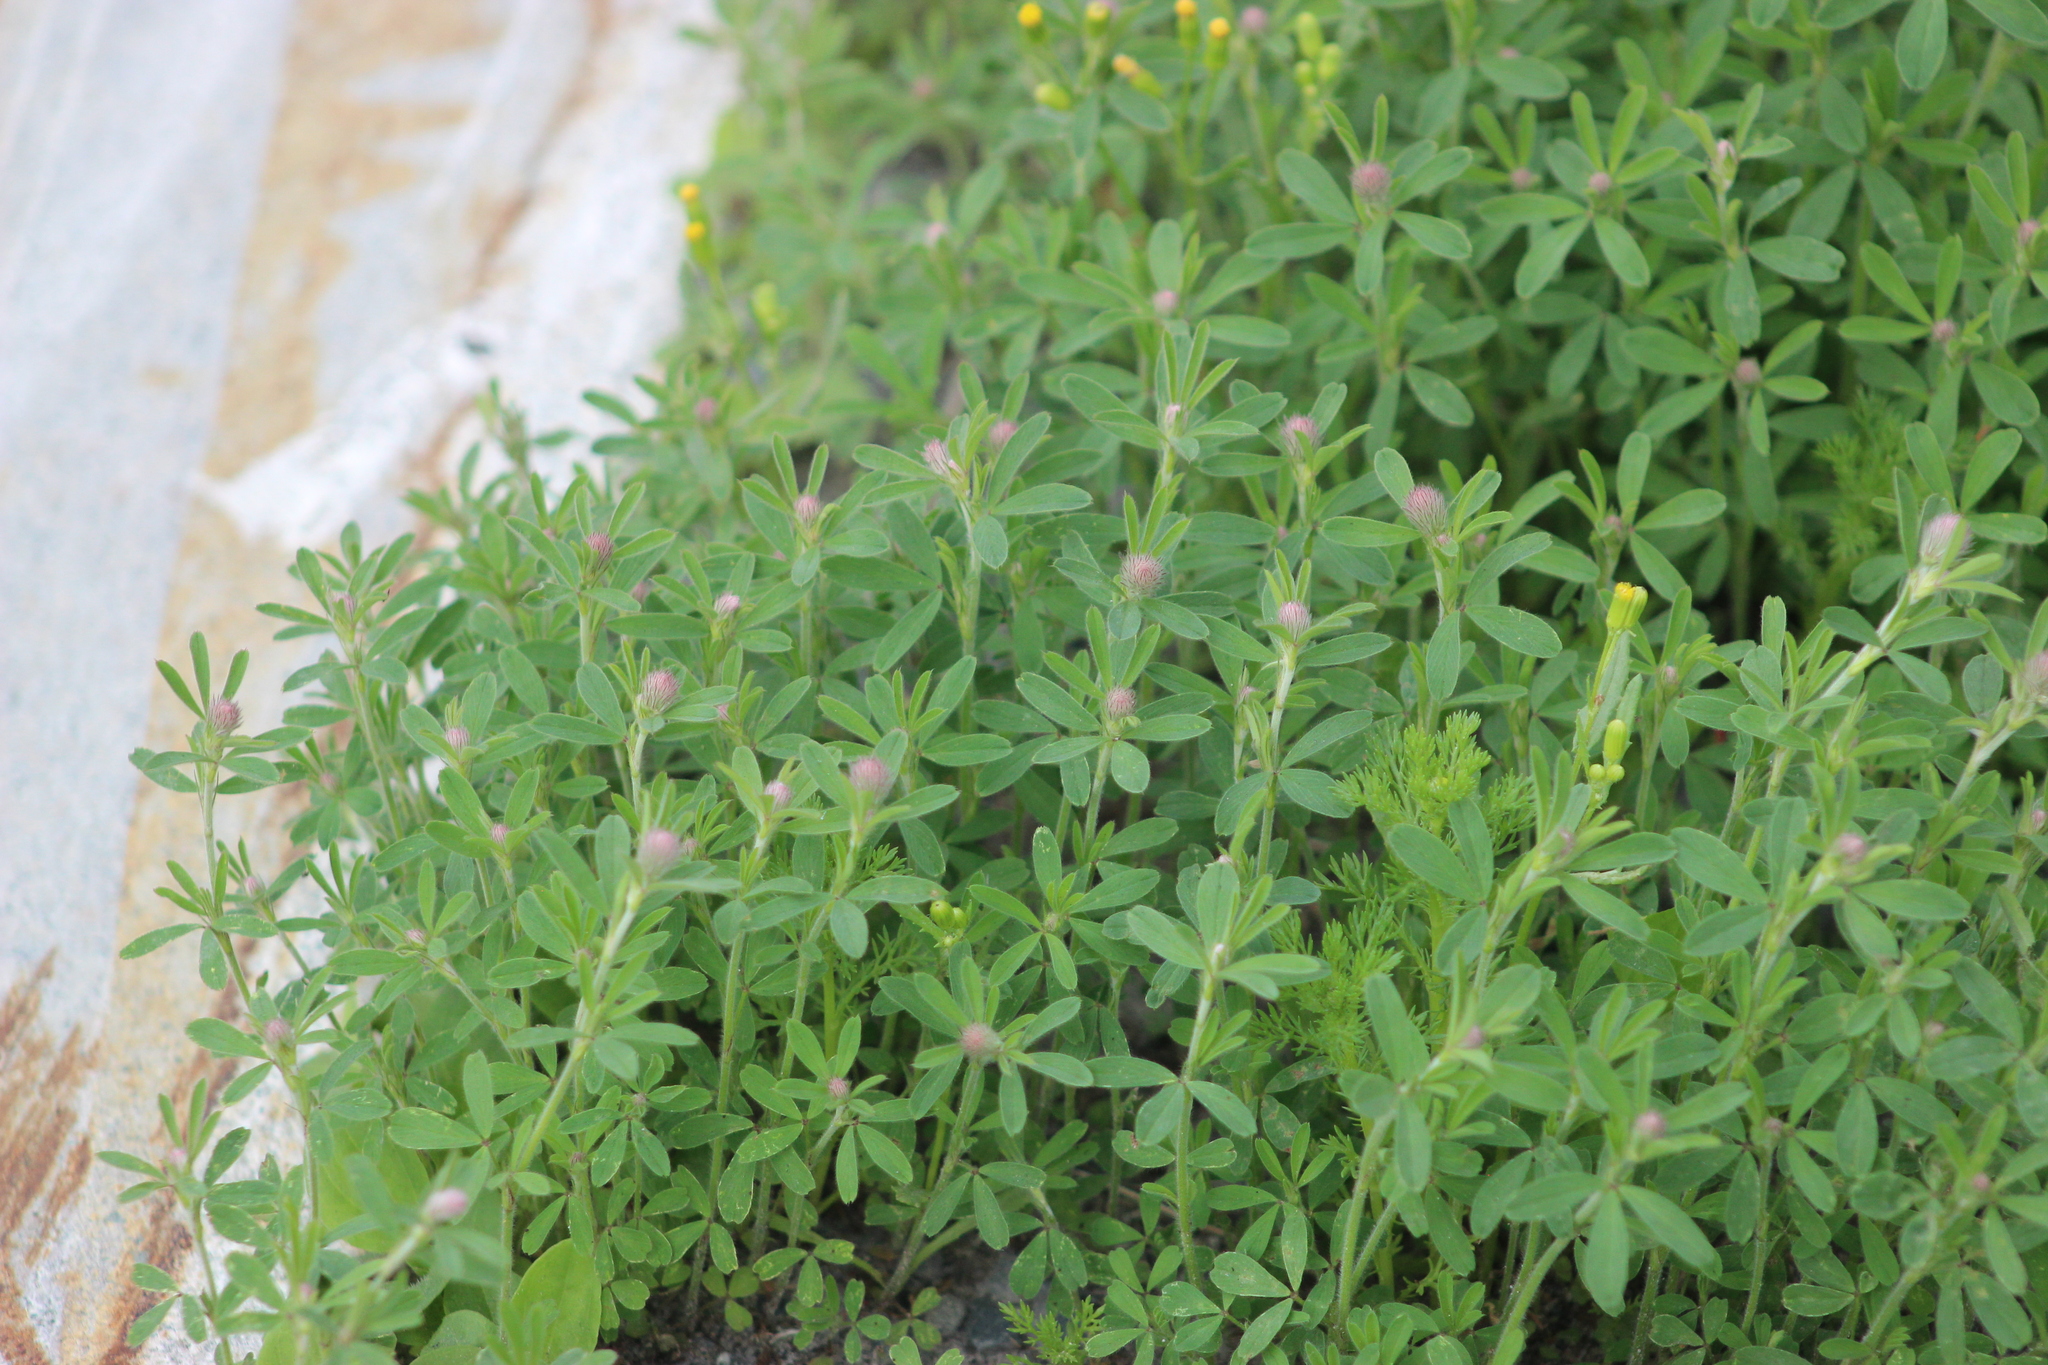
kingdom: Plantae
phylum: Tracheophyta
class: Magnoliopsida
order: Fabales
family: Fabaceae
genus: Trifolium
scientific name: Trifolium arvense
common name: Hare's-foot clover
